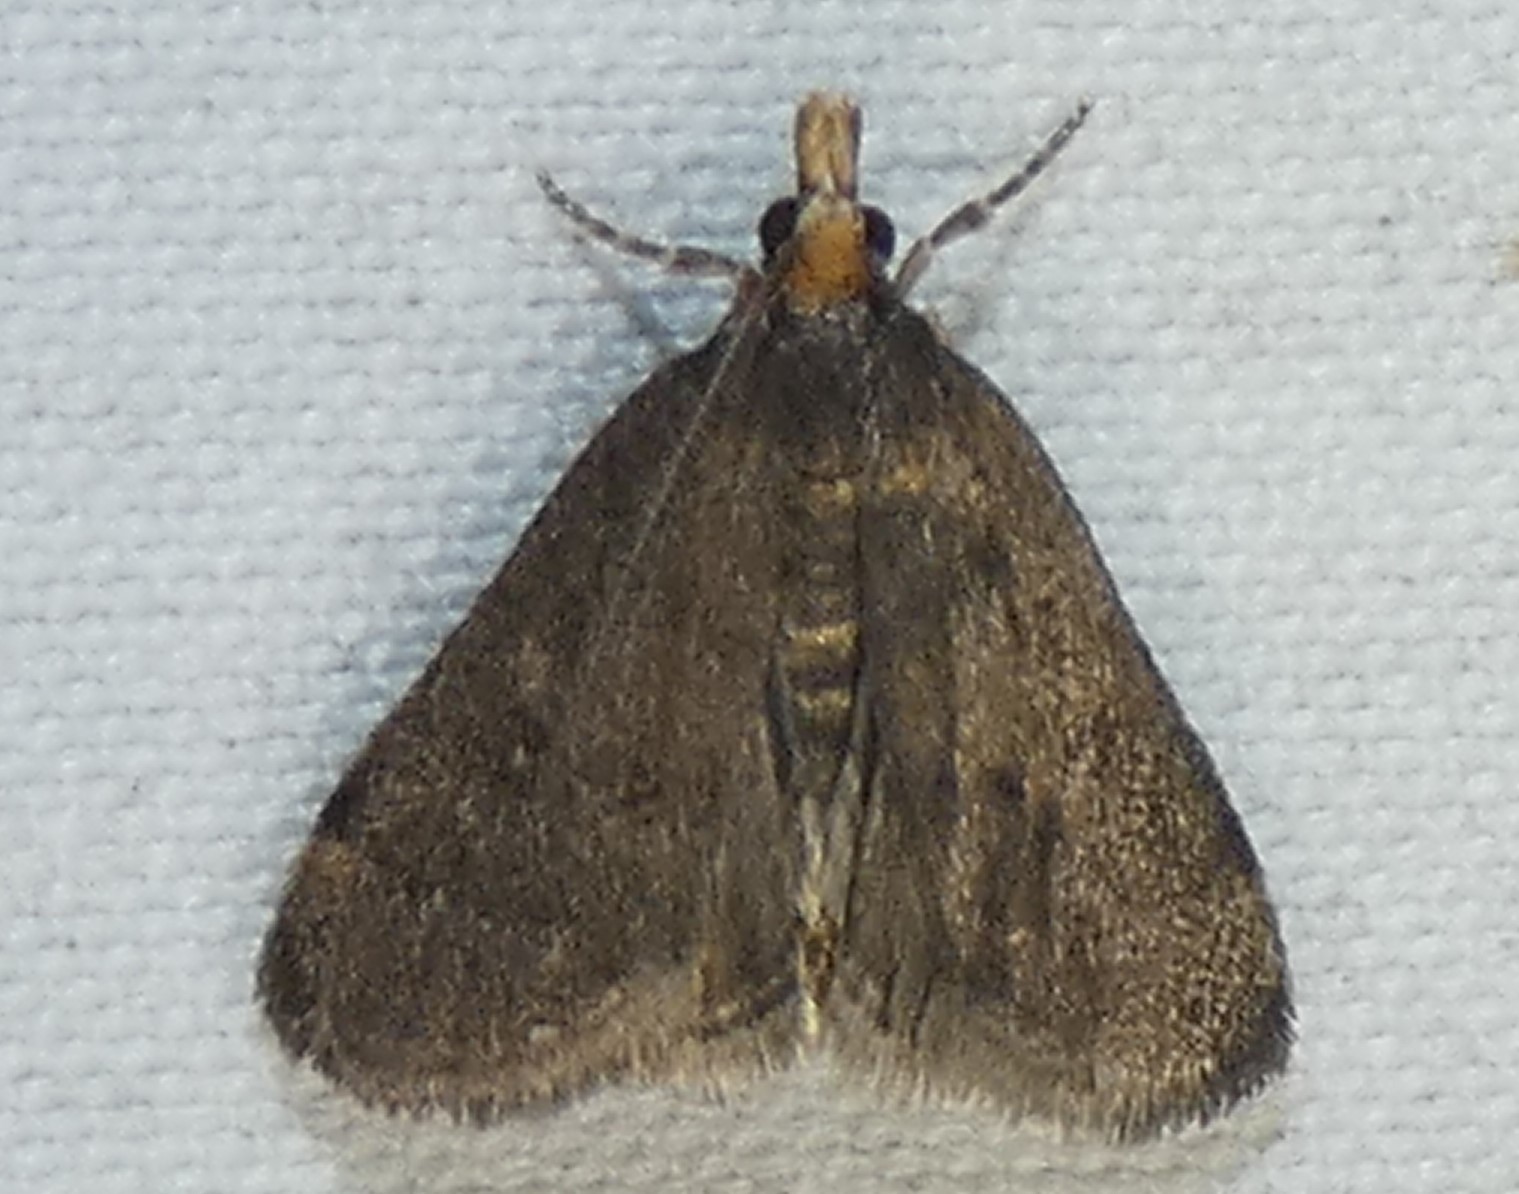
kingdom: Animalia
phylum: Arthropoda
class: Insecta
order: Lepidoptera
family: Crambidae
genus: Pyrausta
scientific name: Pyrausta merrickalis
